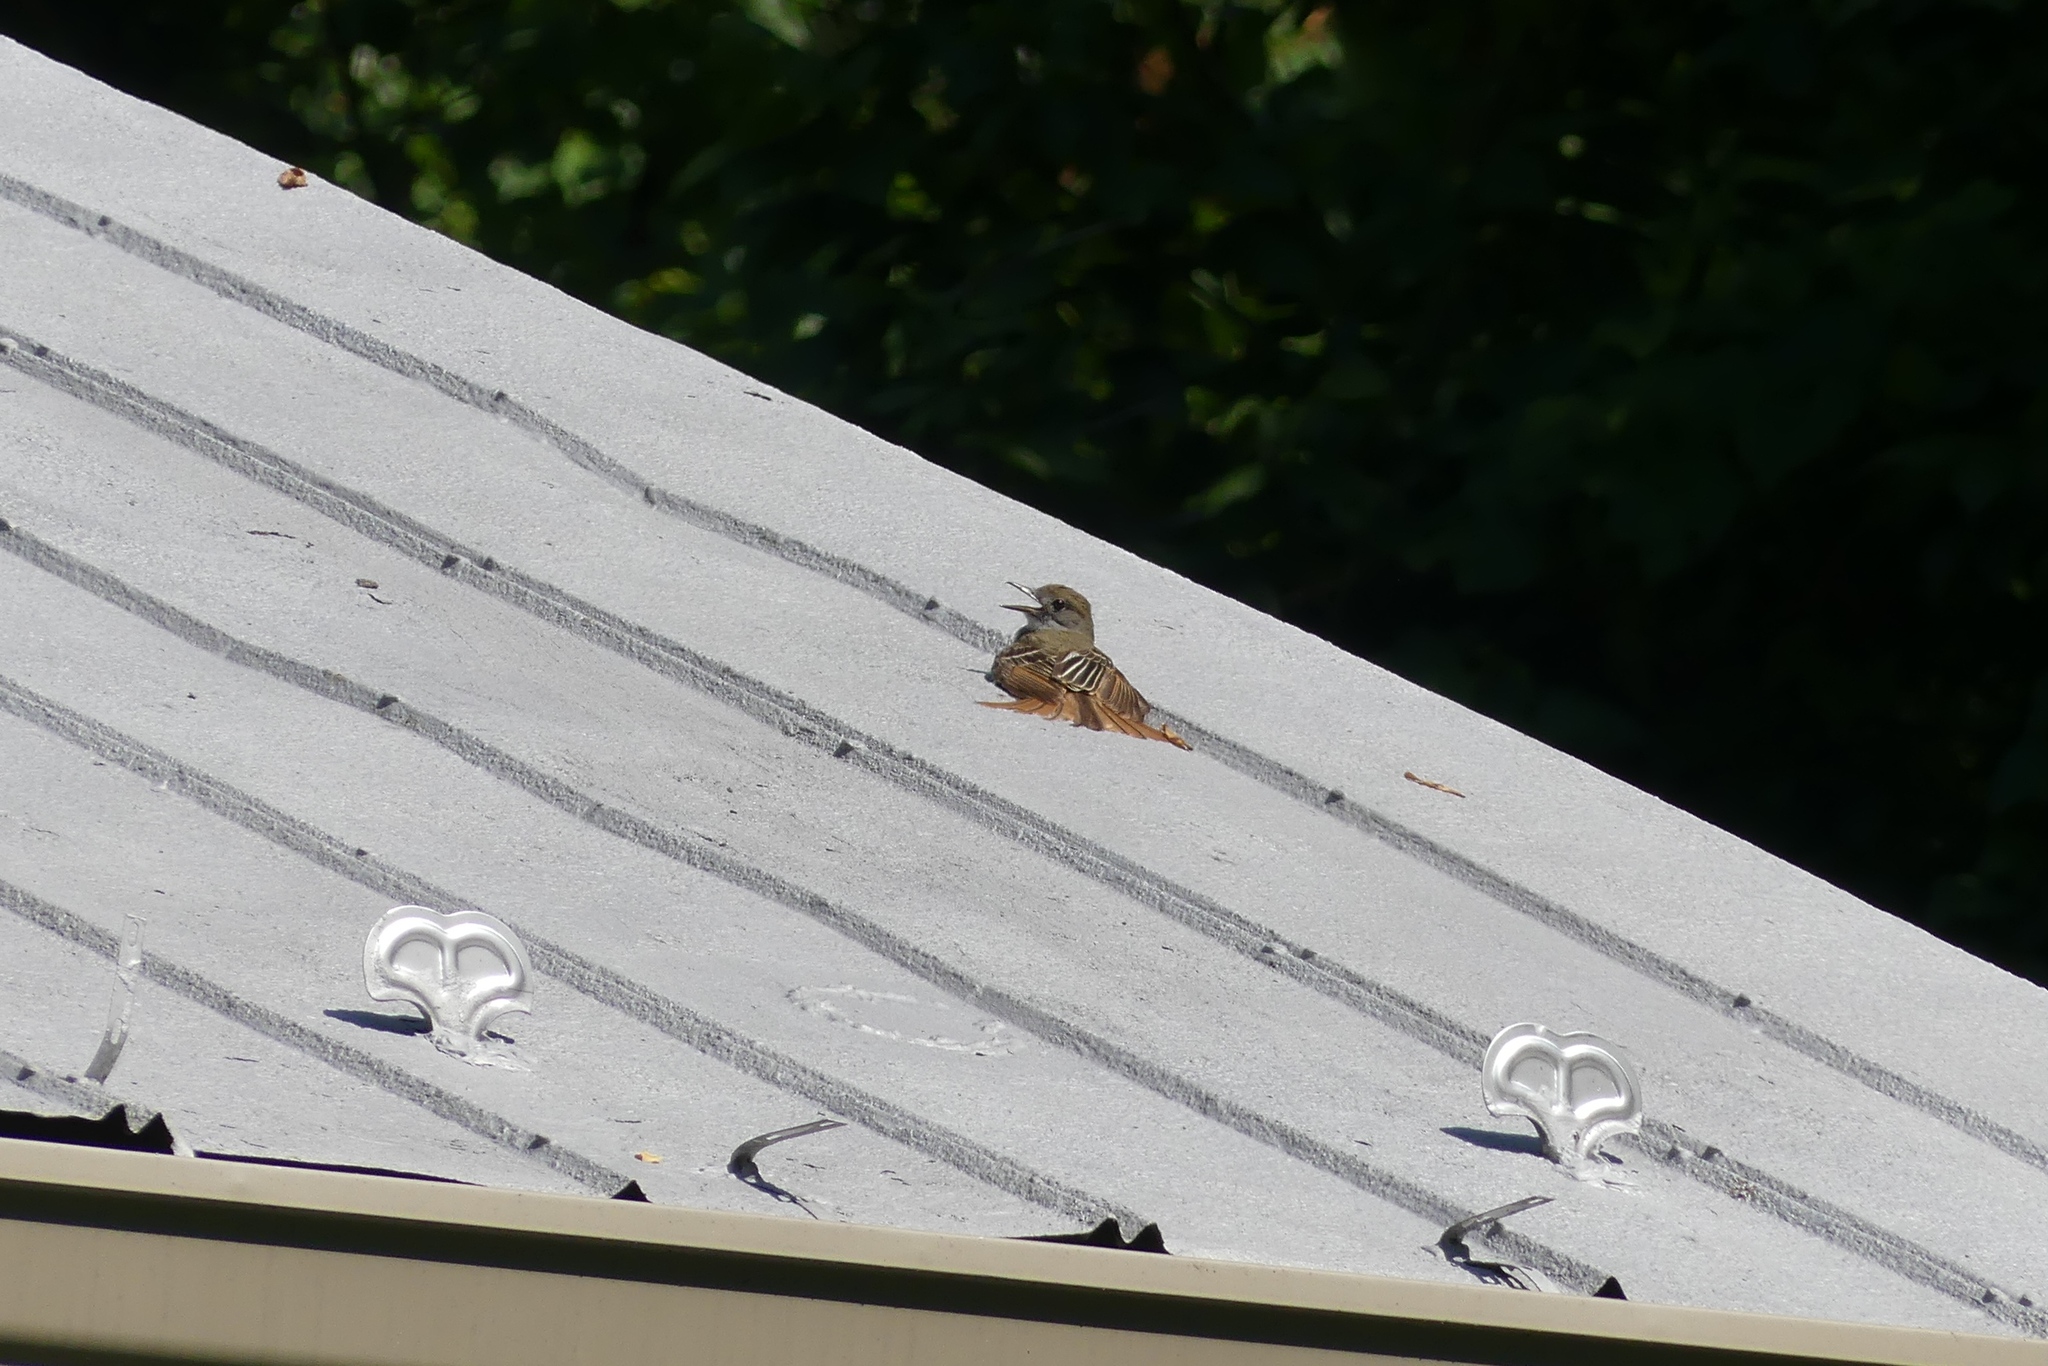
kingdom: Animalia
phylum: Chordata
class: Aves
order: Passeriformes
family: Tyrannidae
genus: Myiarchus
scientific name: Myiarchus crinitus
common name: Great crested flycatcher
